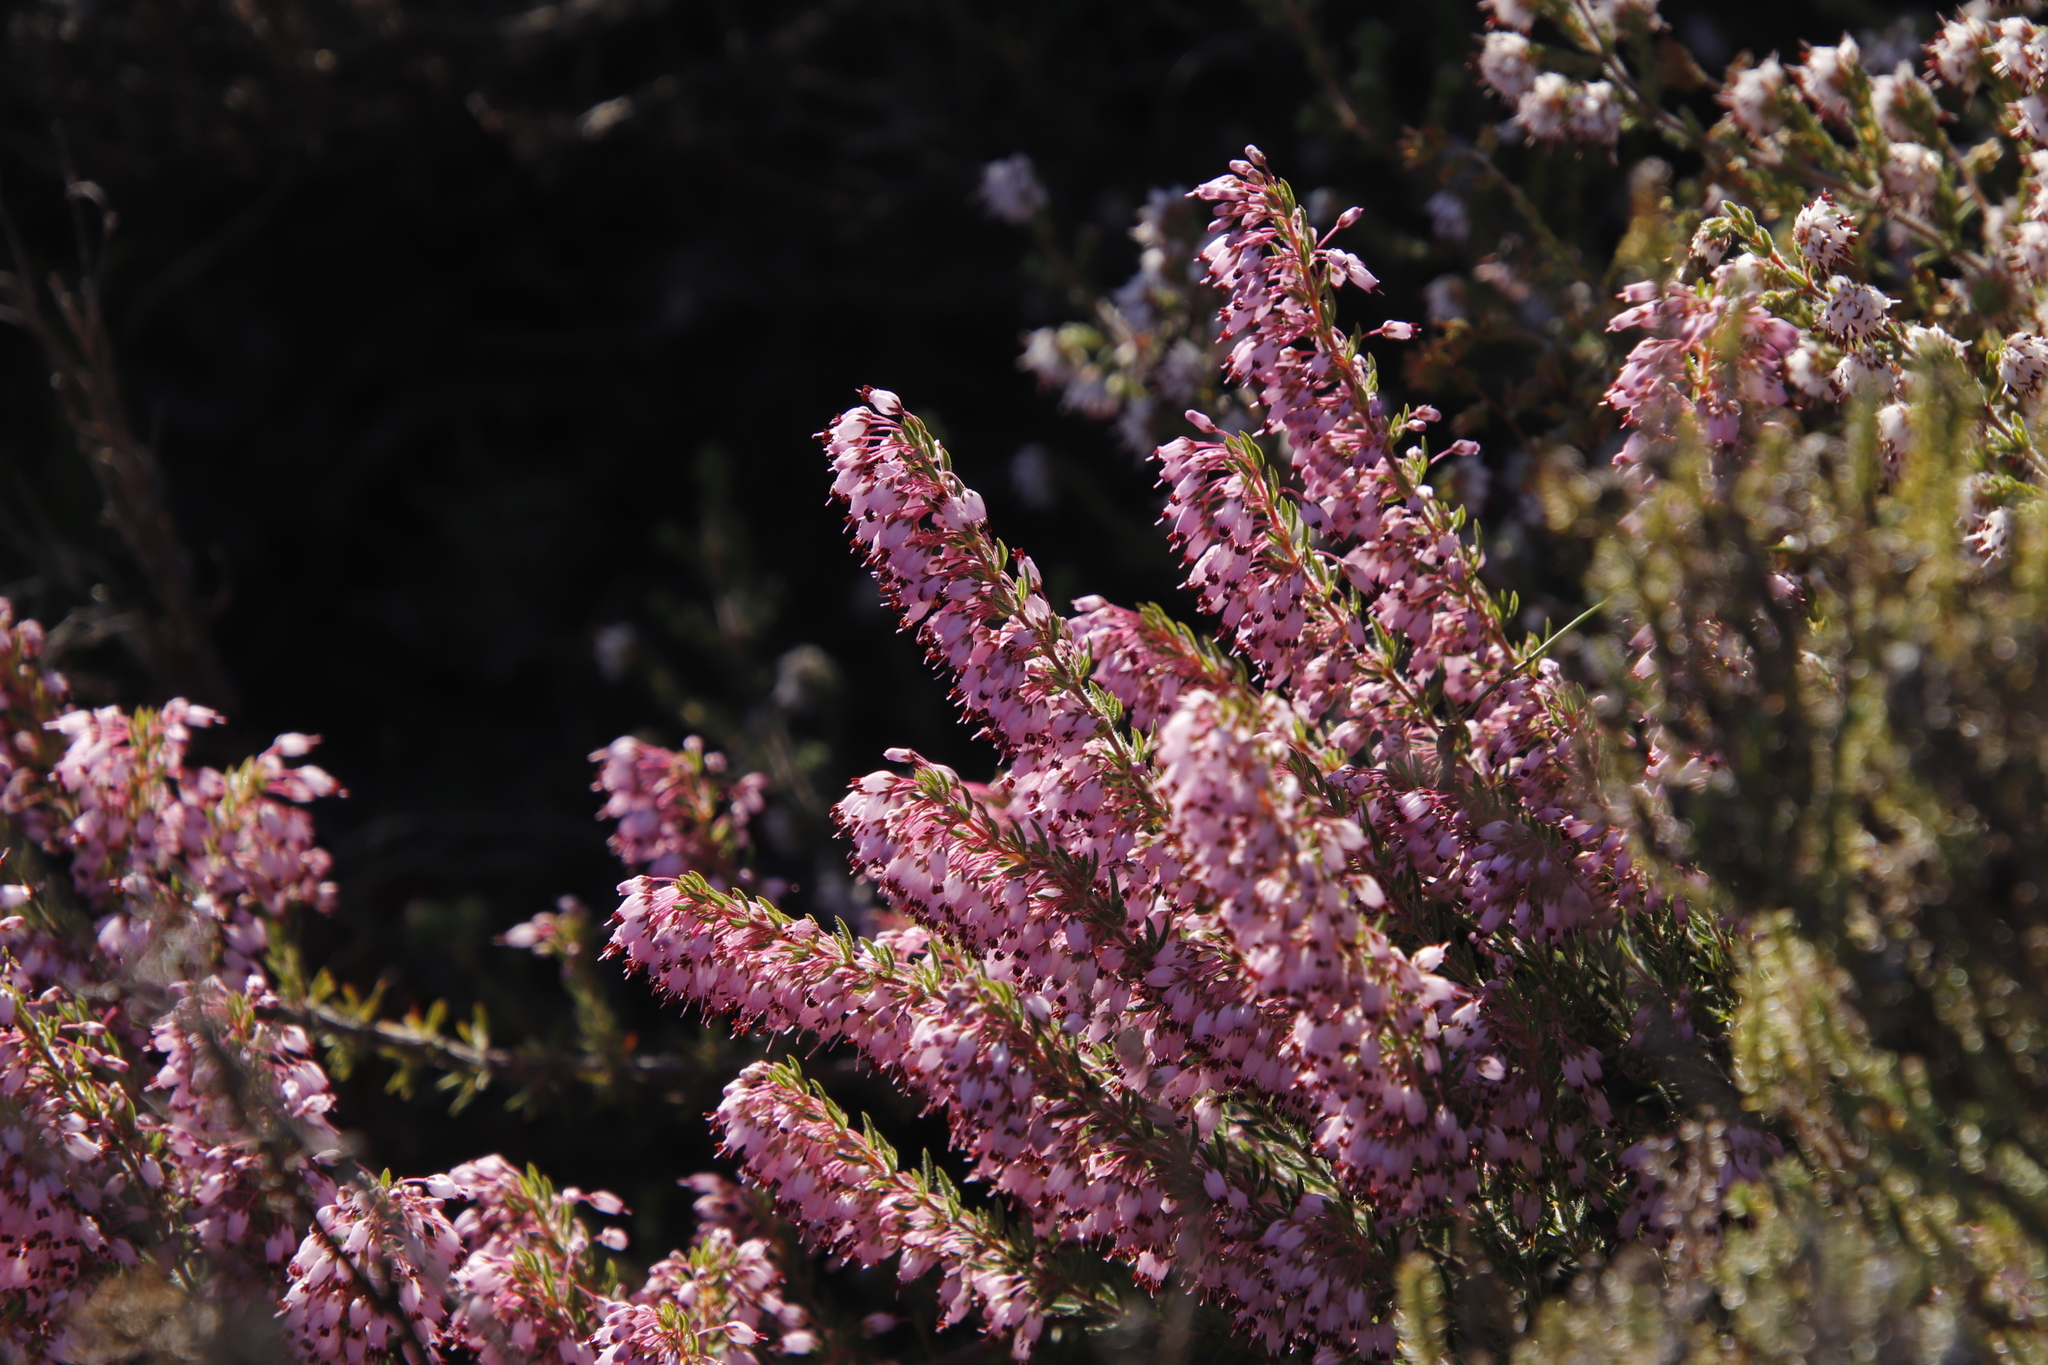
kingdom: Plantae
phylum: Tracheophyta
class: Magnoliopsida
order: Ericales
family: Ericaceae
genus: Erica
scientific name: Erica nudiflora
